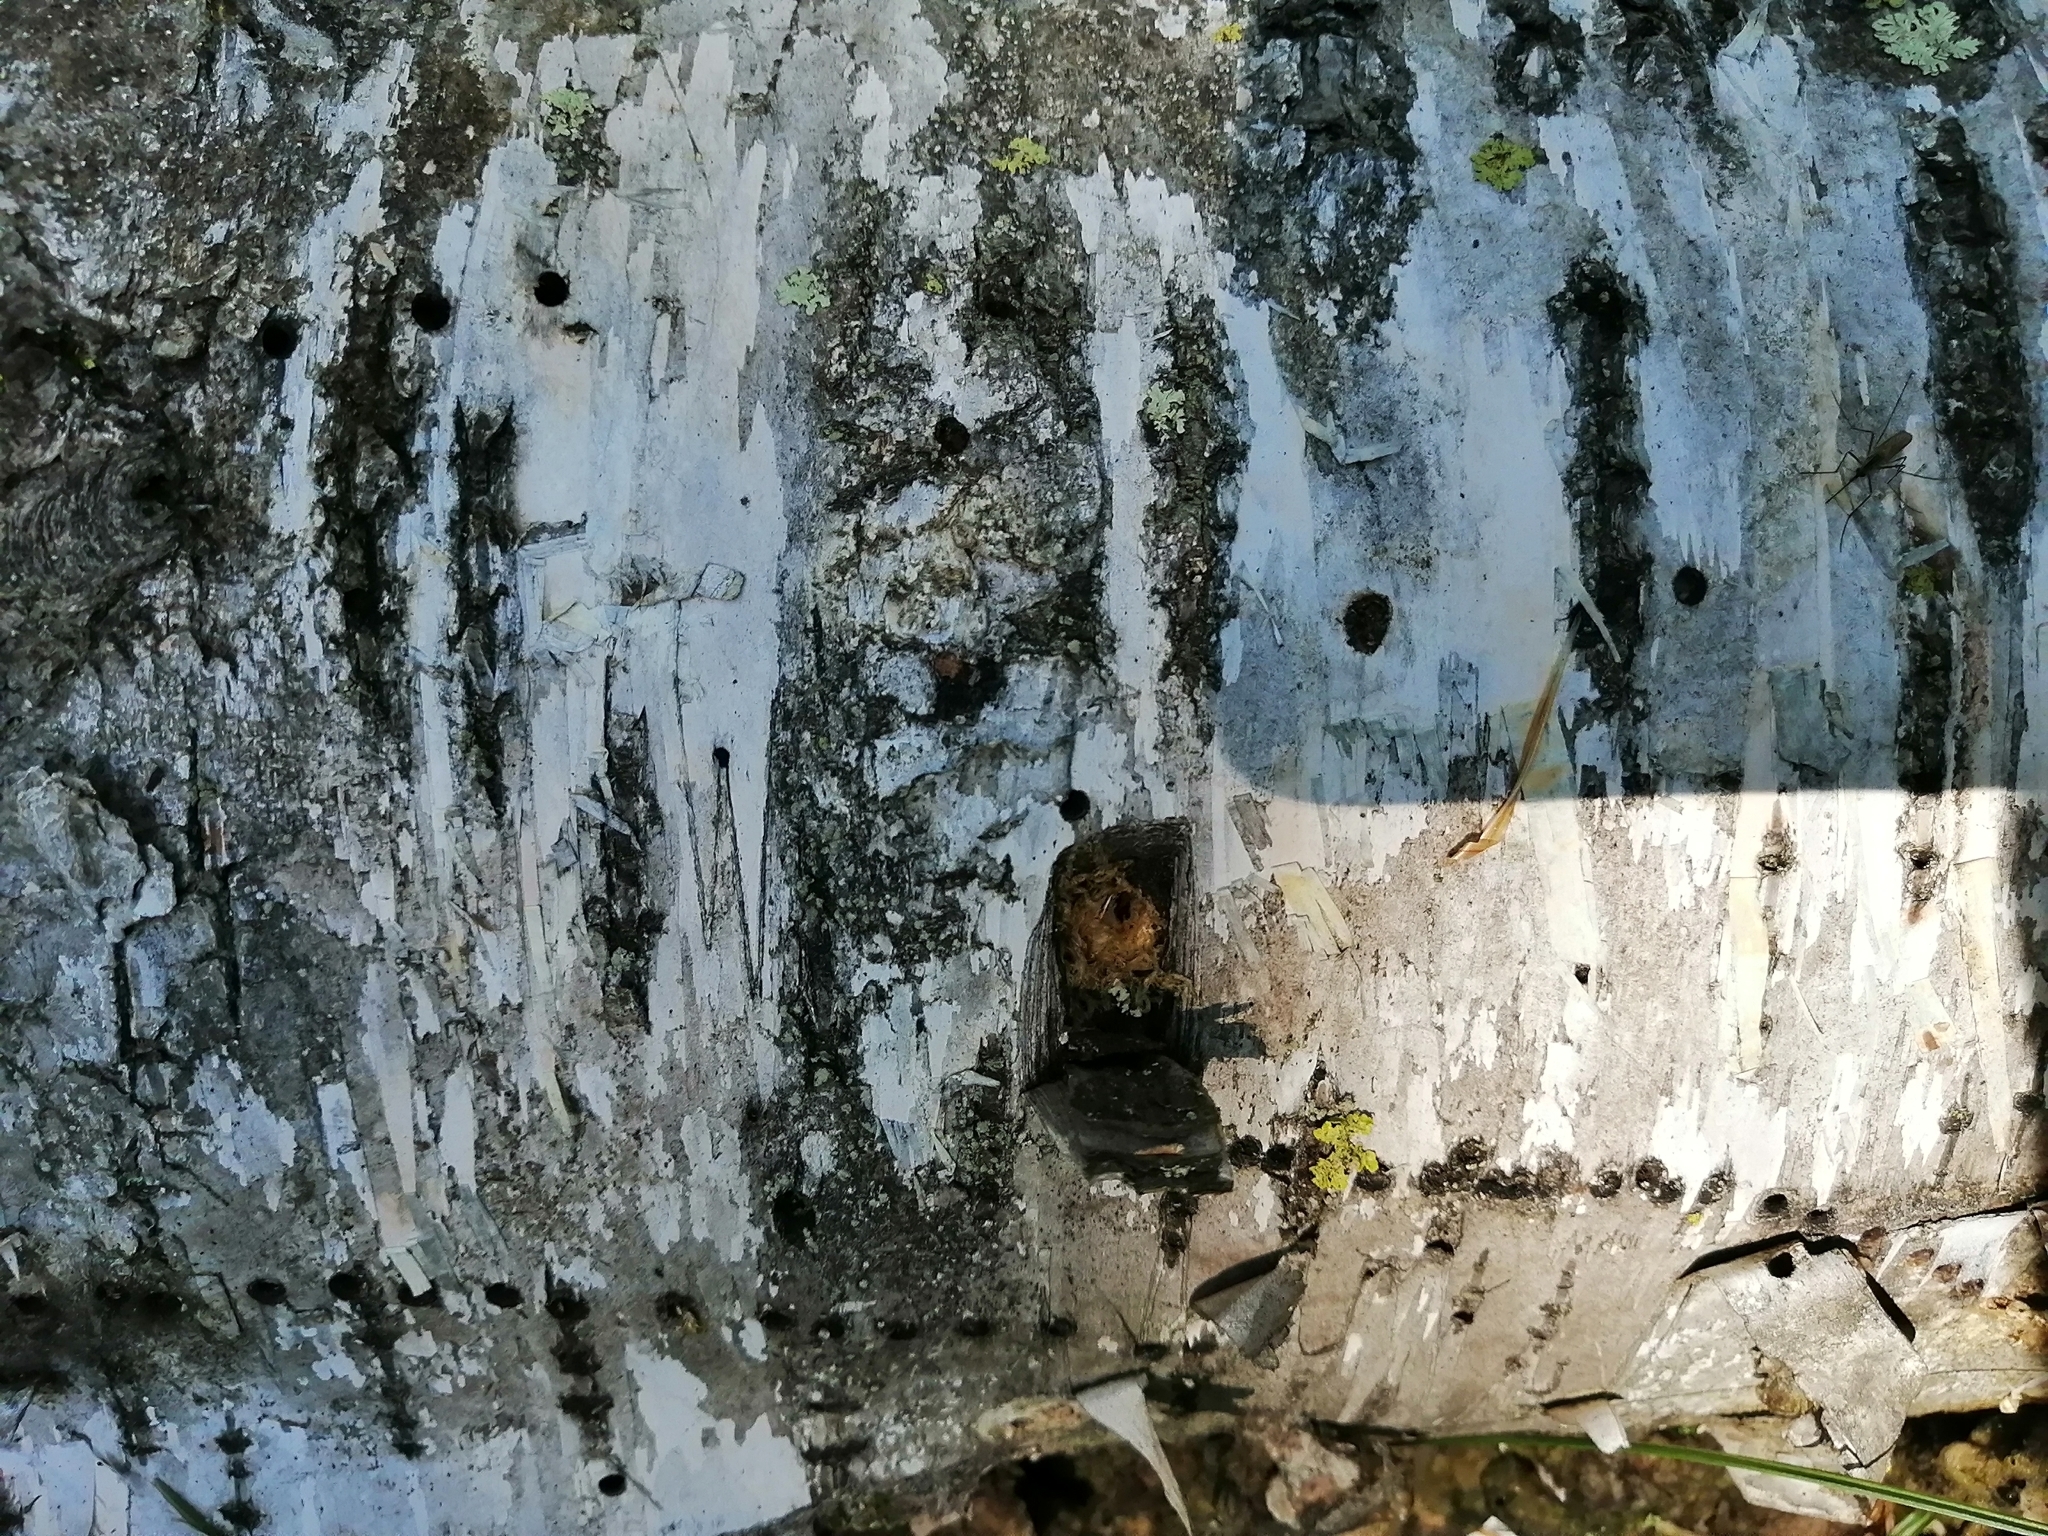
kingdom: Animalia
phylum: Arthropoda
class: Insecta
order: Coleoptera
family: Curculionidae
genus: Scolytus
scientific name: Scolytus ratzeburgii
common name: Birch bark beetle
